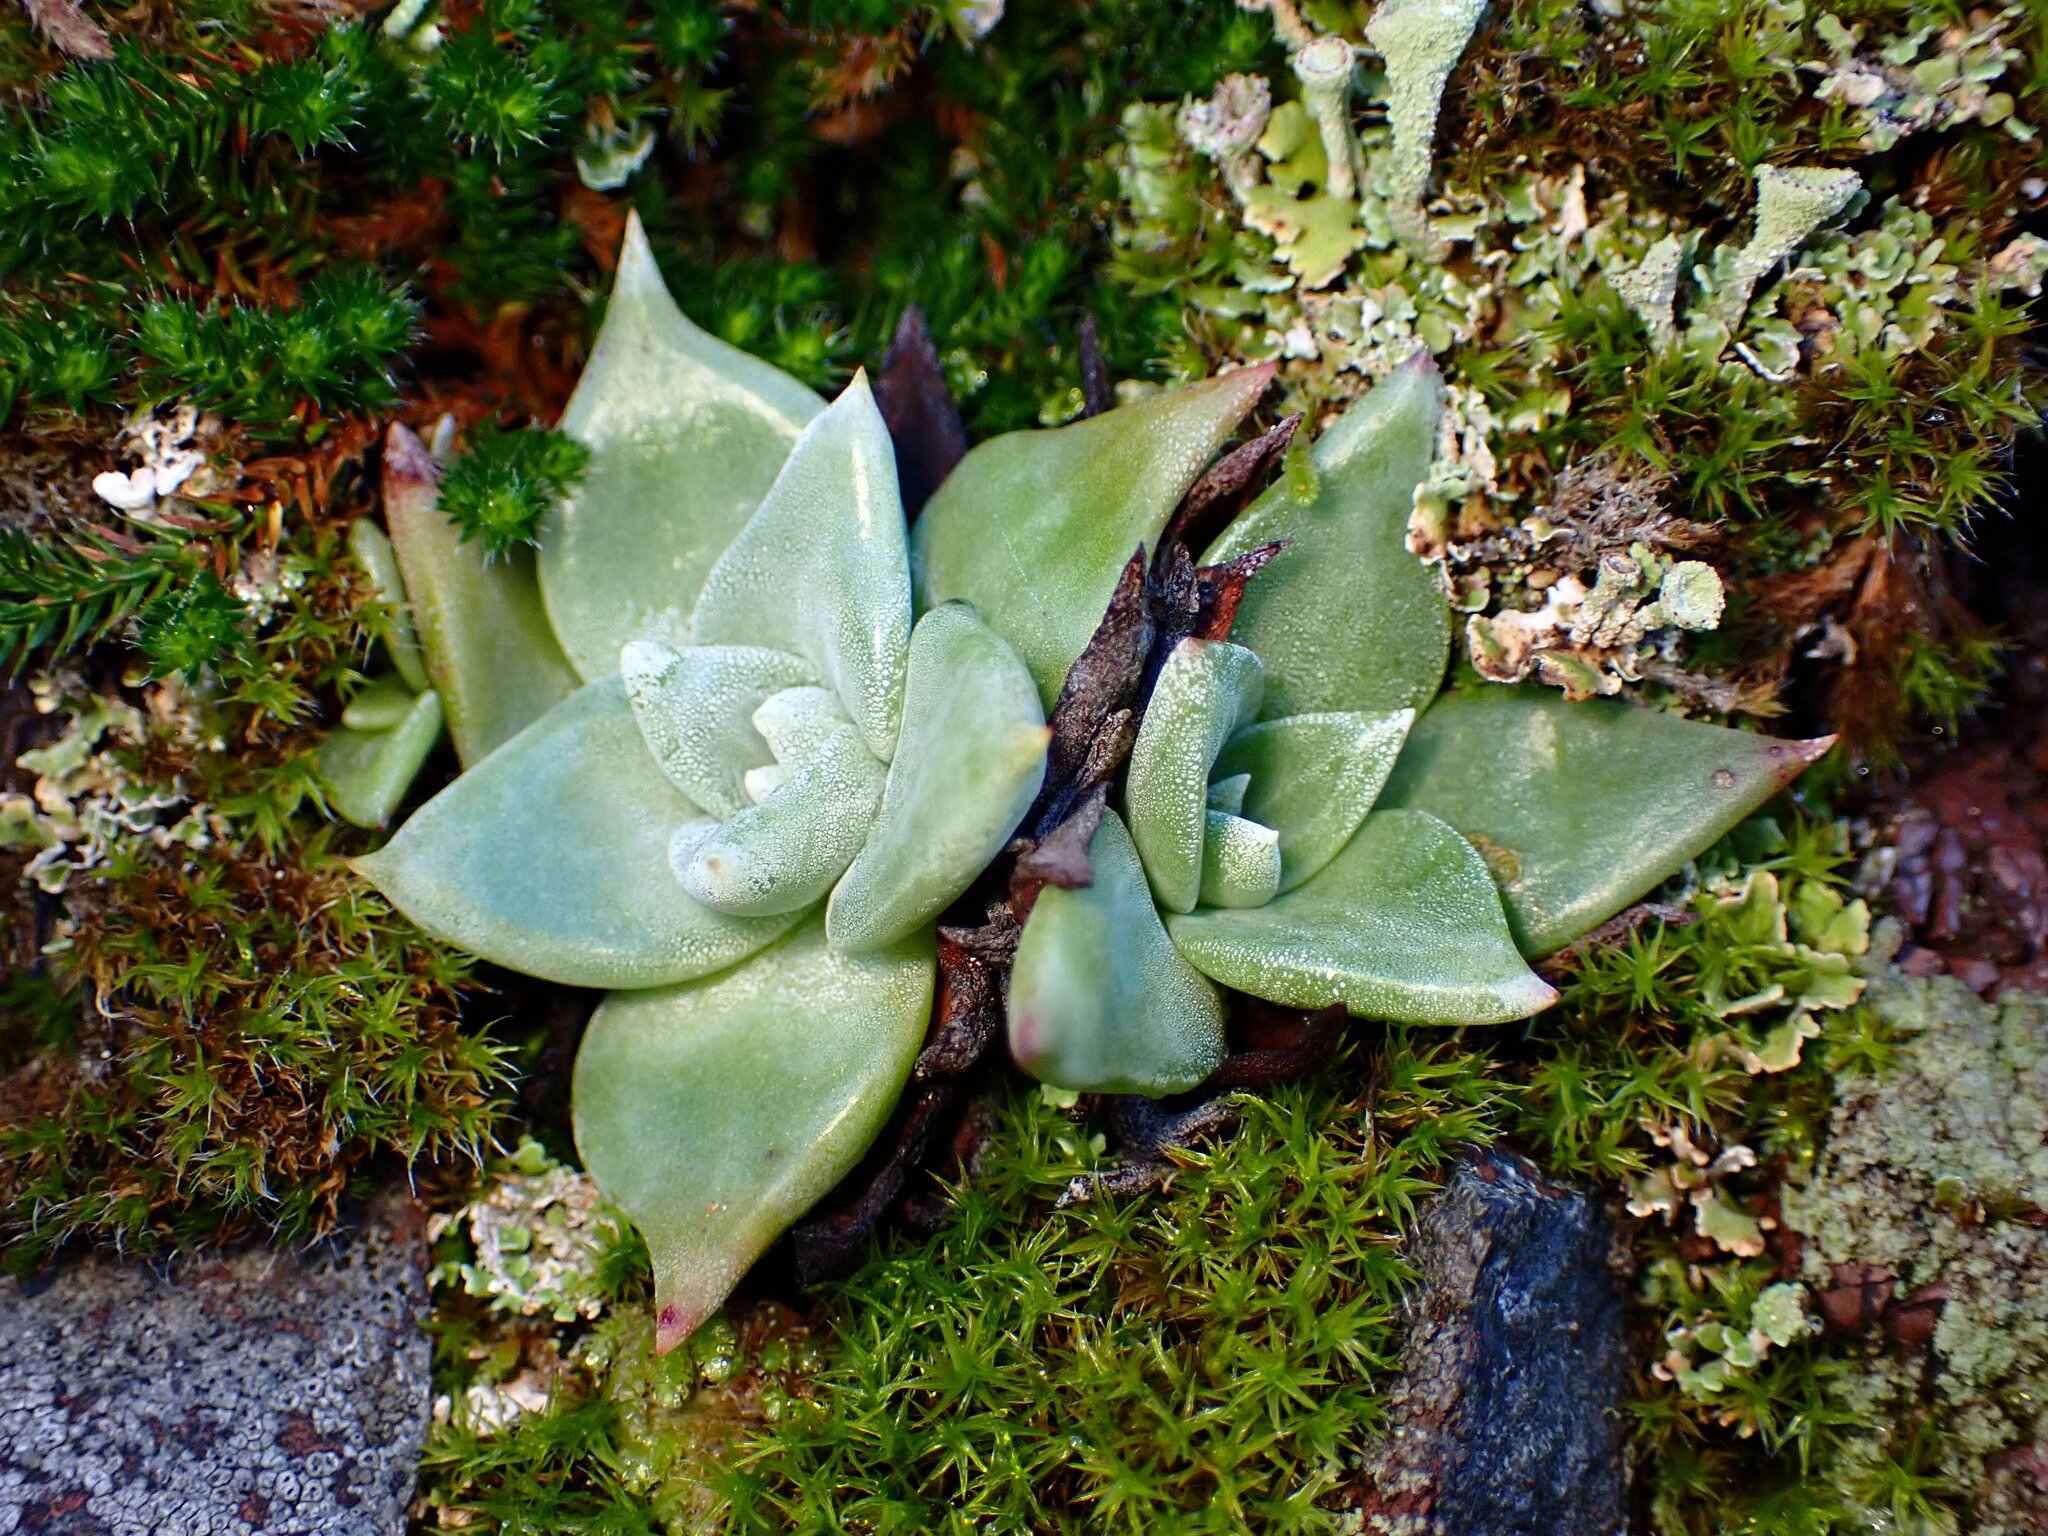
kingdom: Plantae
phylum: Tracheophyta
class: Magnoliopsida
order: Saxifragales
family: Crassulaceae
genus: Dudleya
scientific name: Dudleya cymosa
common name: Canyon dudleya
